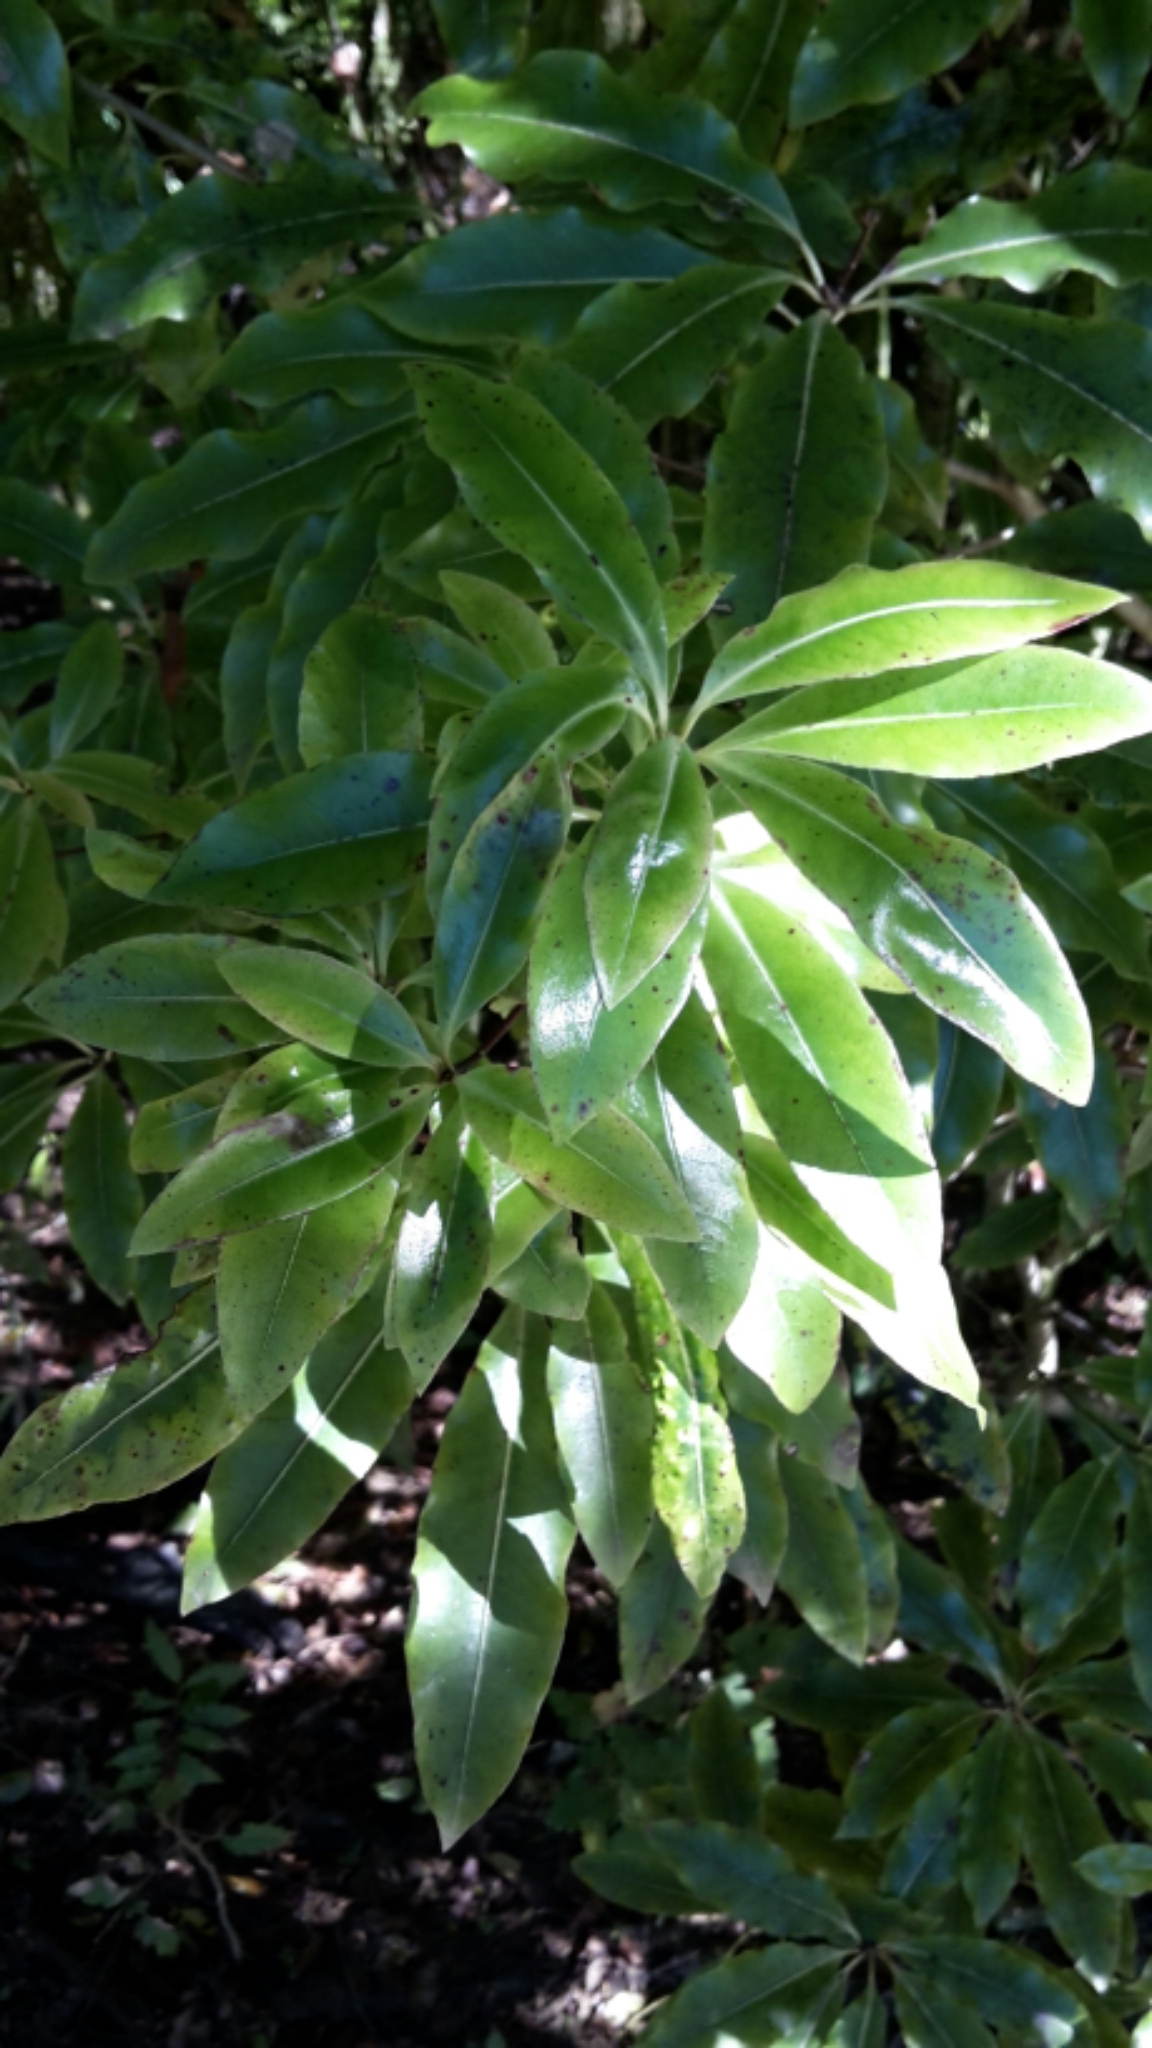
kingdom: Plantae
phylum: Tracheophyta
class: Magnoliopsida
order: Apiales
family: Pittosporaceae
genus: Pittosporum
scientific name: Pittosporum eugenioides
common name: Lemonwood
